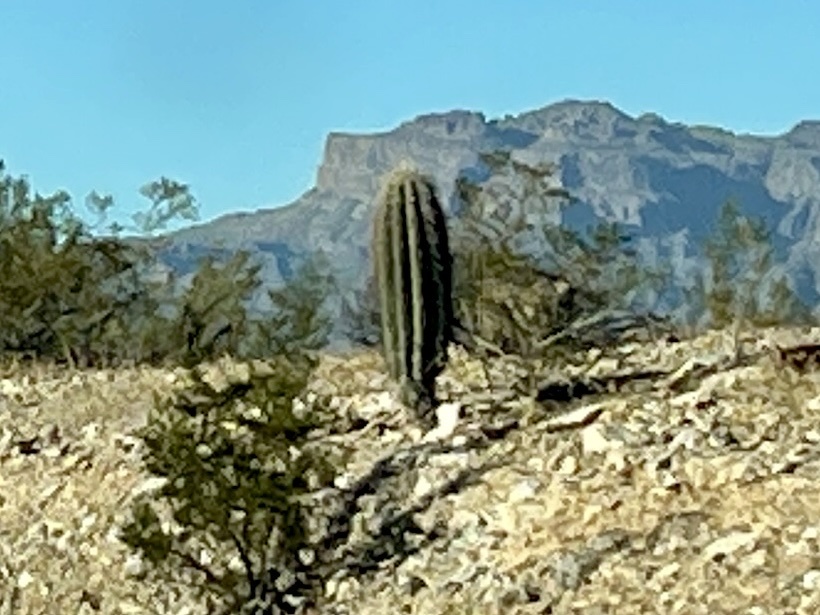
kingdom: Plantae
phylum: Tracheophyta
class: Magnoliopsida
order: Caryophyllales
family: Cactaceae
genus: Carnegiea
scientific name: Carnegiea gigantea
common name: Saguaro
